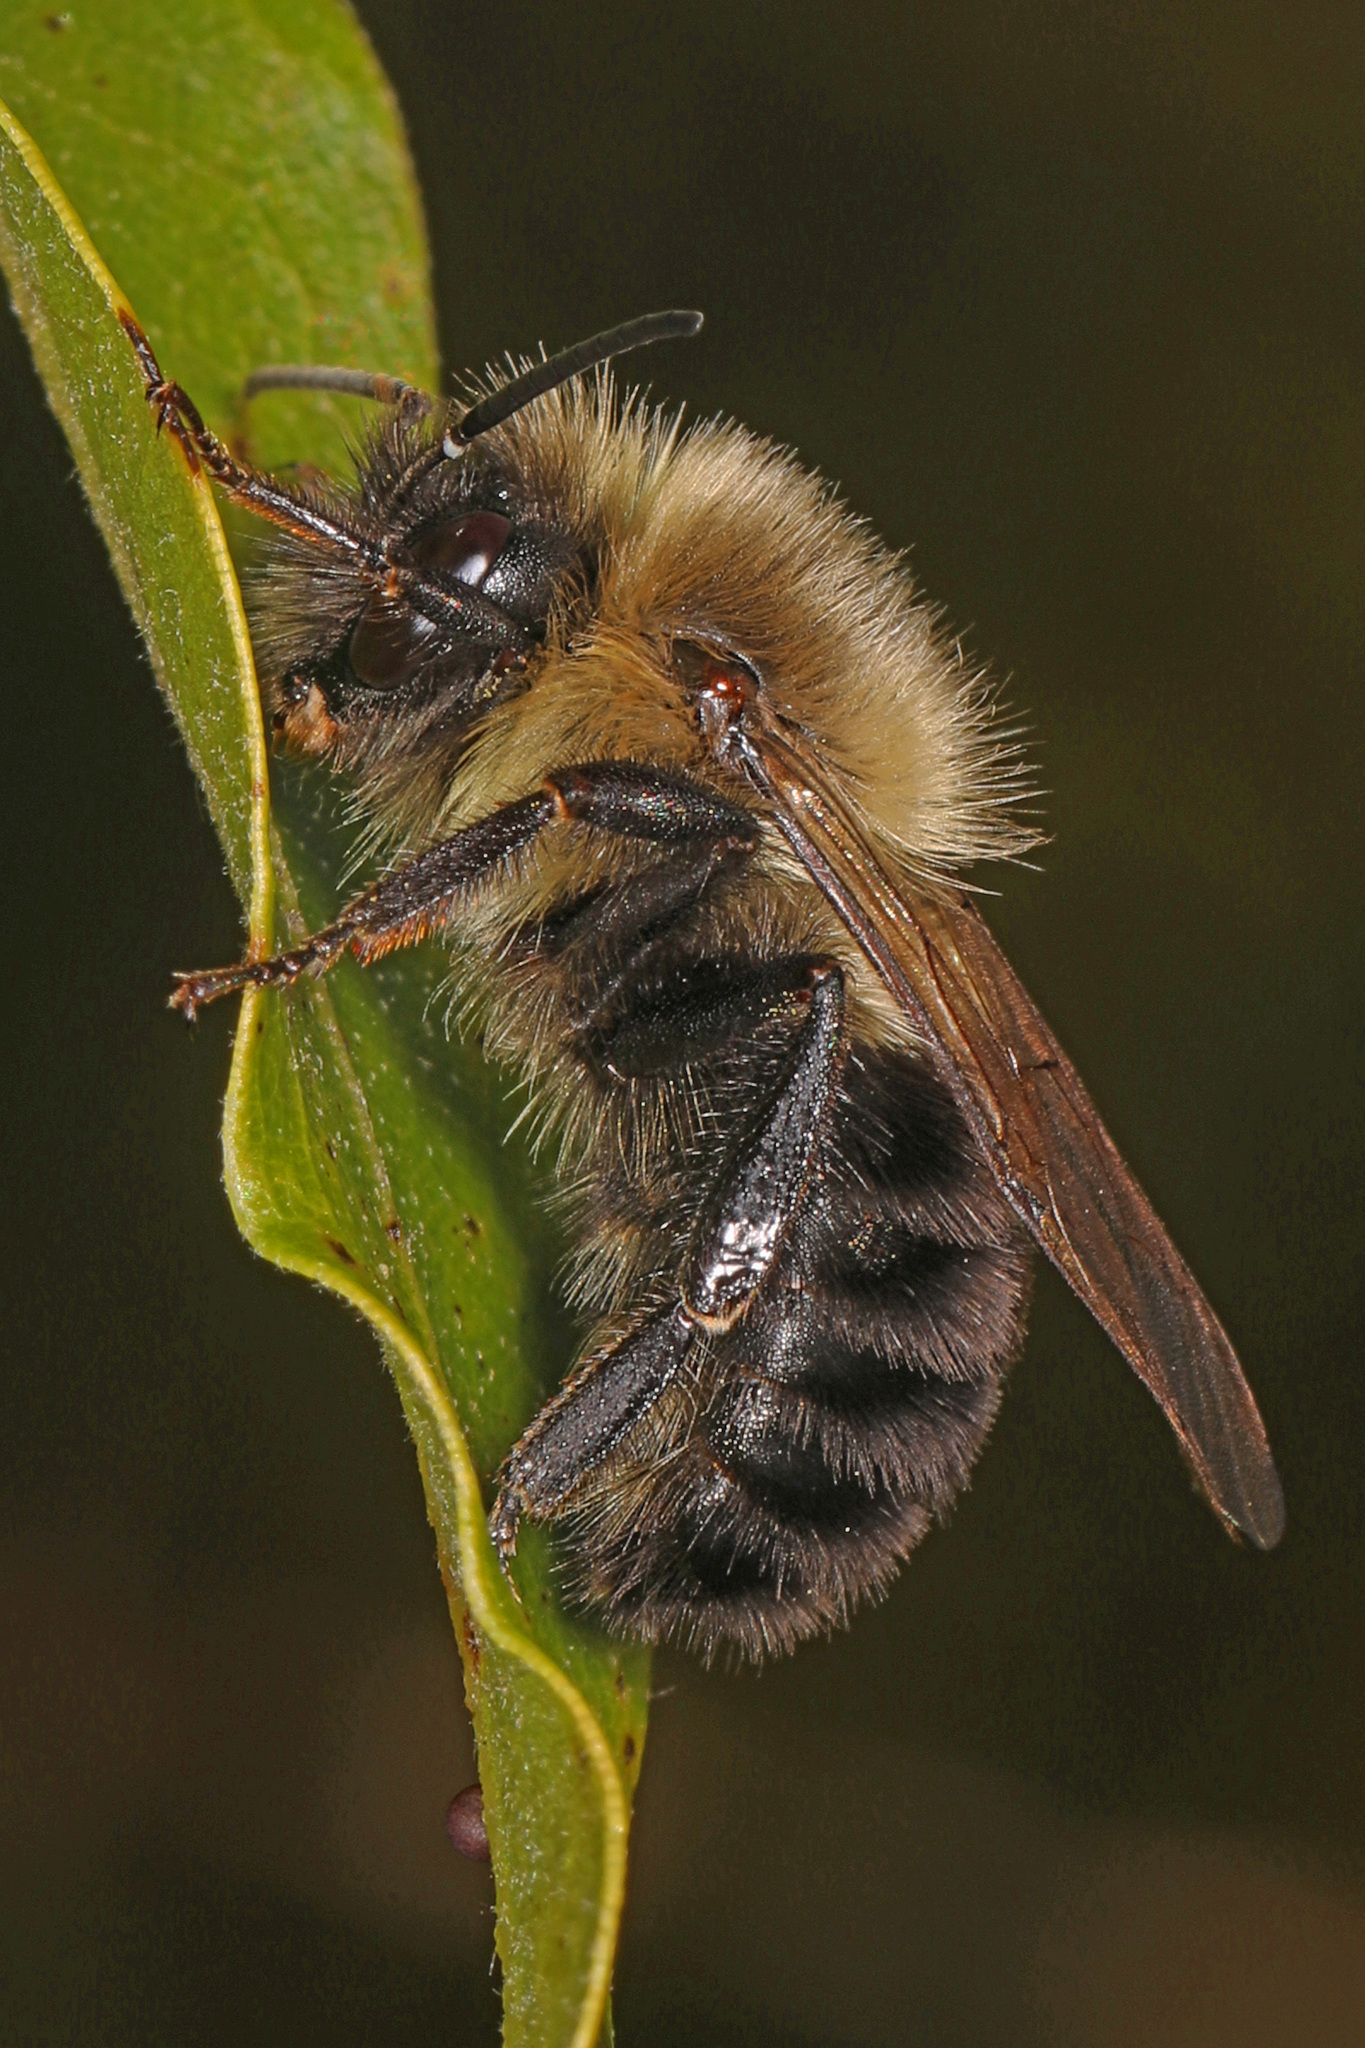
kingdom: Animalia
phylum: Arthropoda
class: Insecta
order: Hymenoptera
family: Apidae
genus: Bombus
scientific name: Bombus impatiens
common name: Common eastern bumble bee
